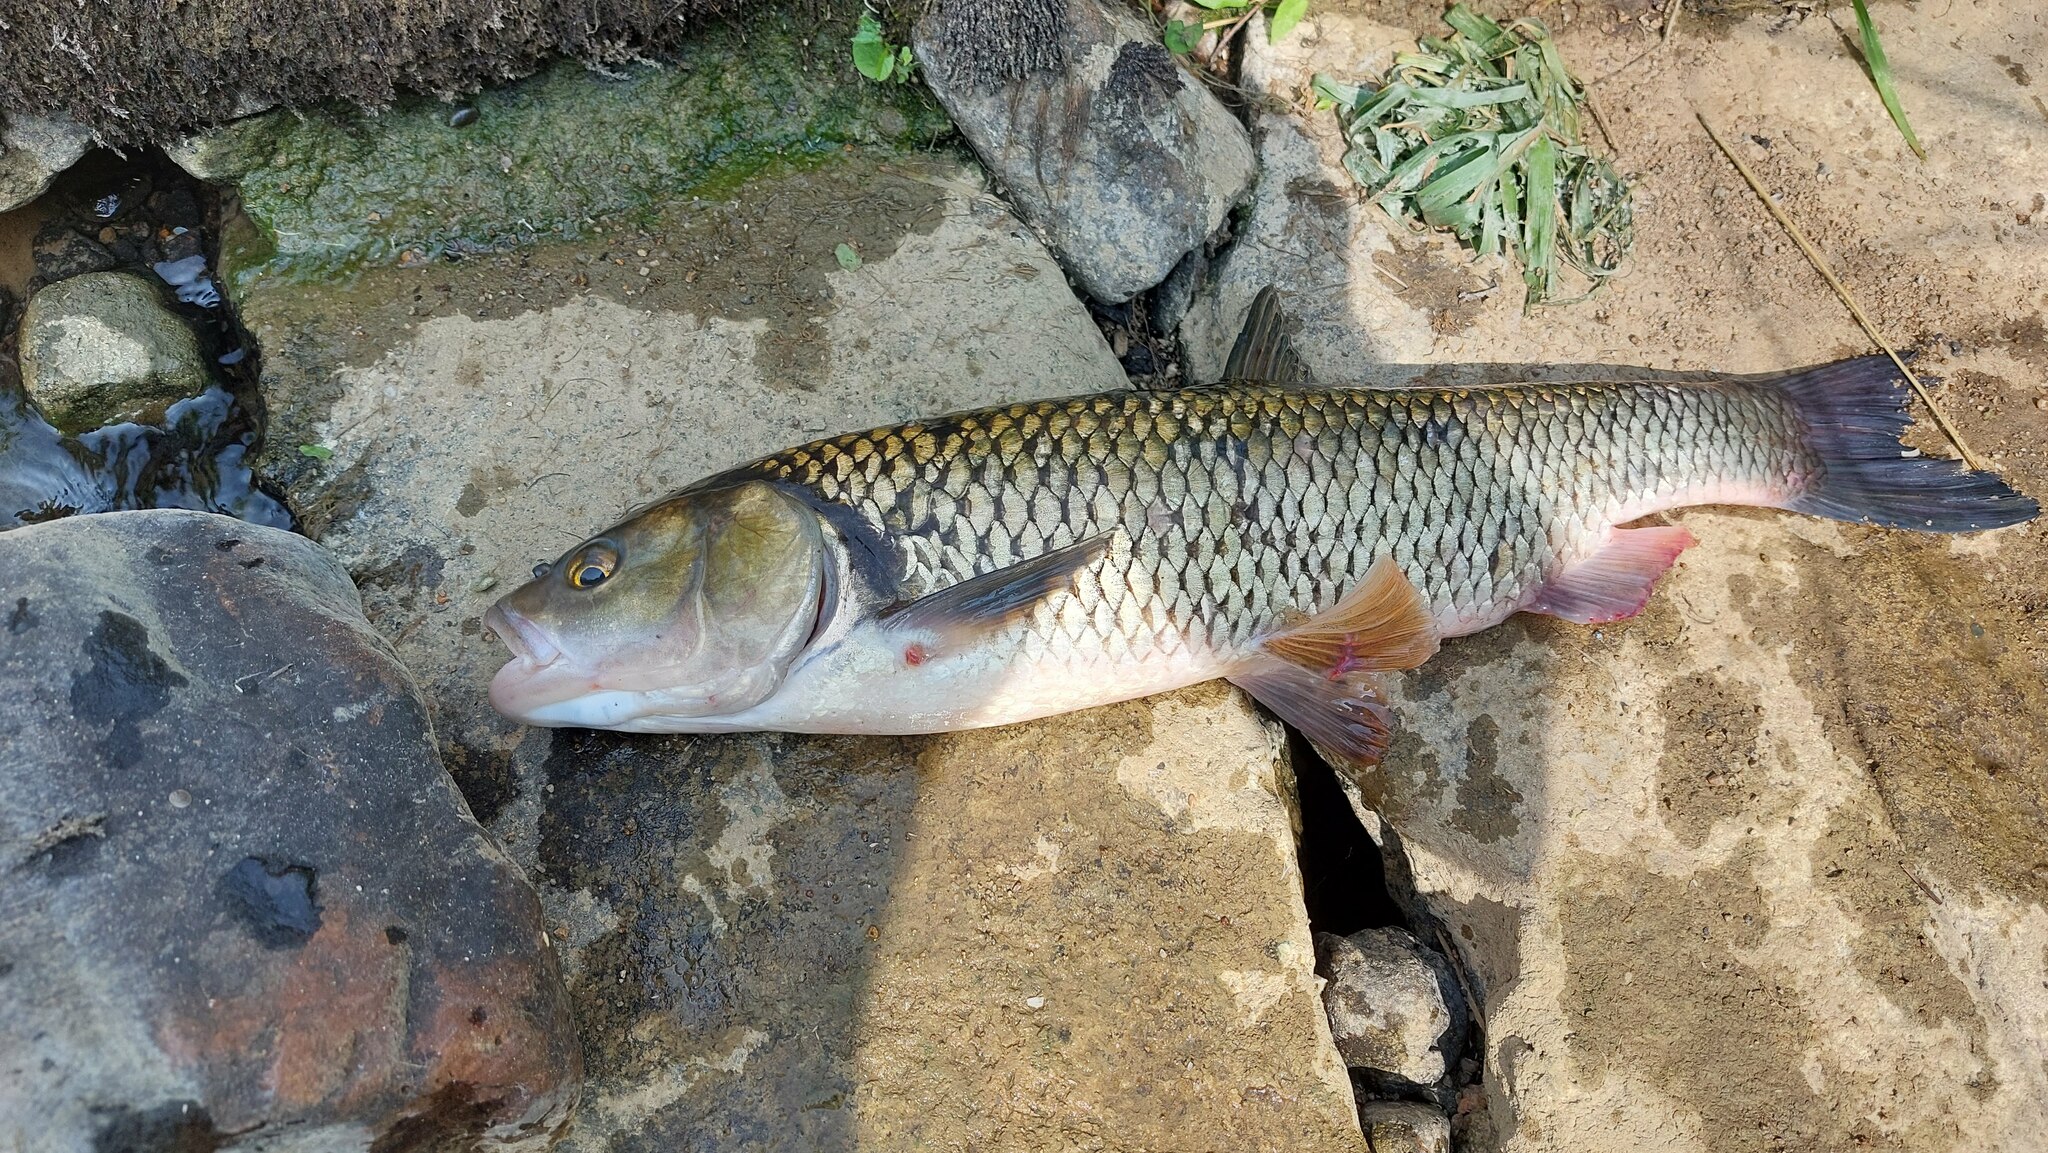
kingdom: Animalia
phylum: Chordata
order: Cypriniformes
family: Cyprinidae
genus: Squalius
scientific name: Squalius cephalus
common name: Chub
